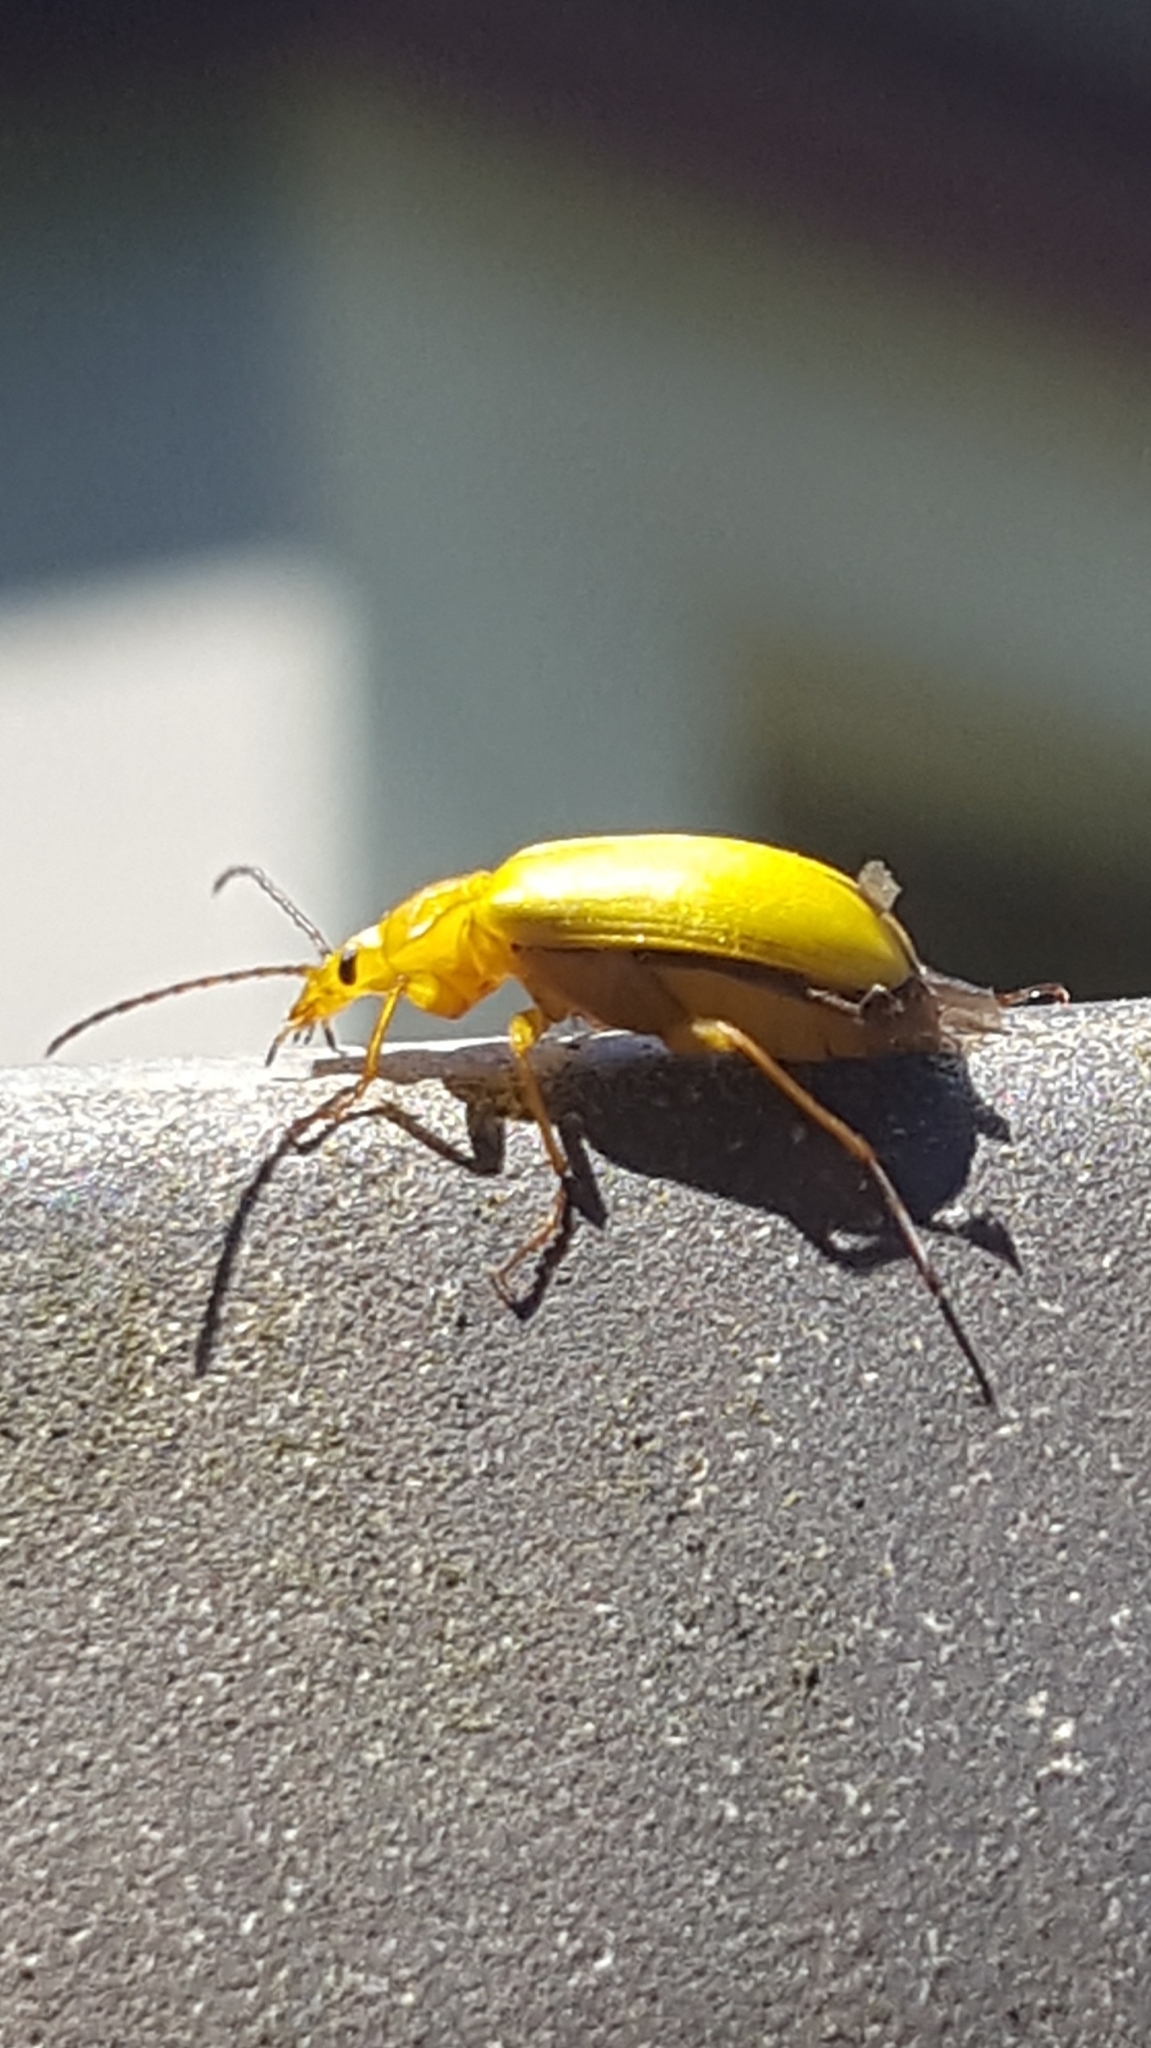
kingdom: Animalia
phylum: Arthropoda
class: Insecta
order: Coleoptera
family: Tenebrionidae
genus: Cteniopus
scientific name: Cteniopus sulphureus
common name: Sulphur beetle
